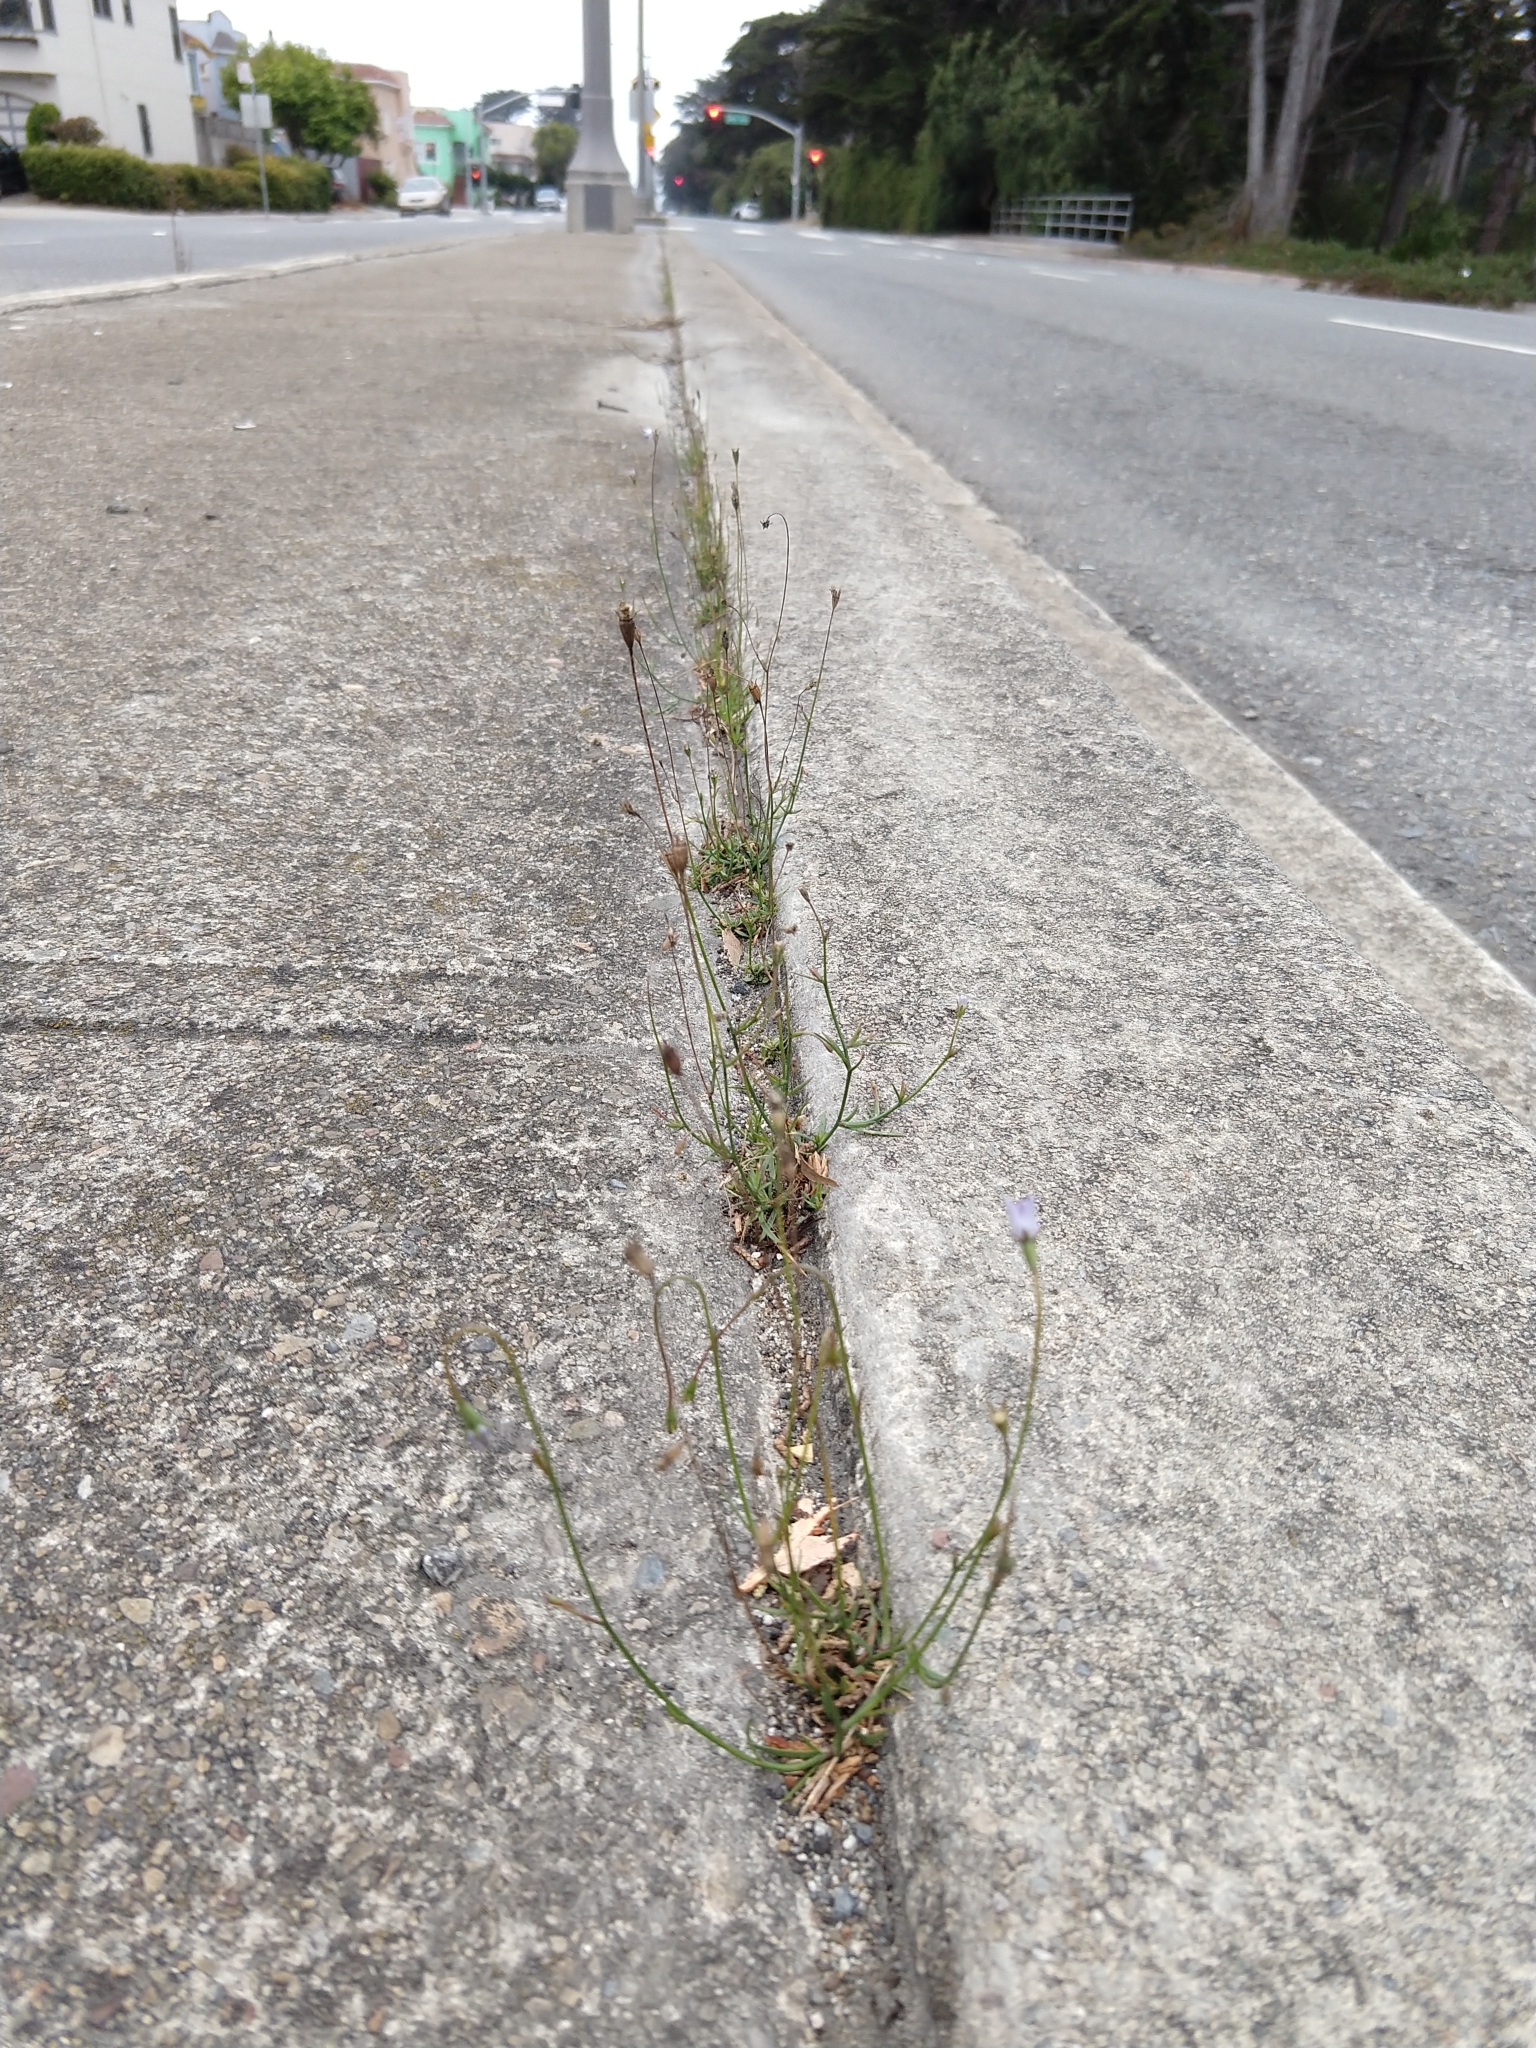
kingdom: Plantae
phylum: Tracheophyta
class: Magnoliopsida
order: Asterales
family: Campanulaceae
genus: Wahlenbergia
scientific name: Wahlenbergia marginata
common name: Southern rockbell
